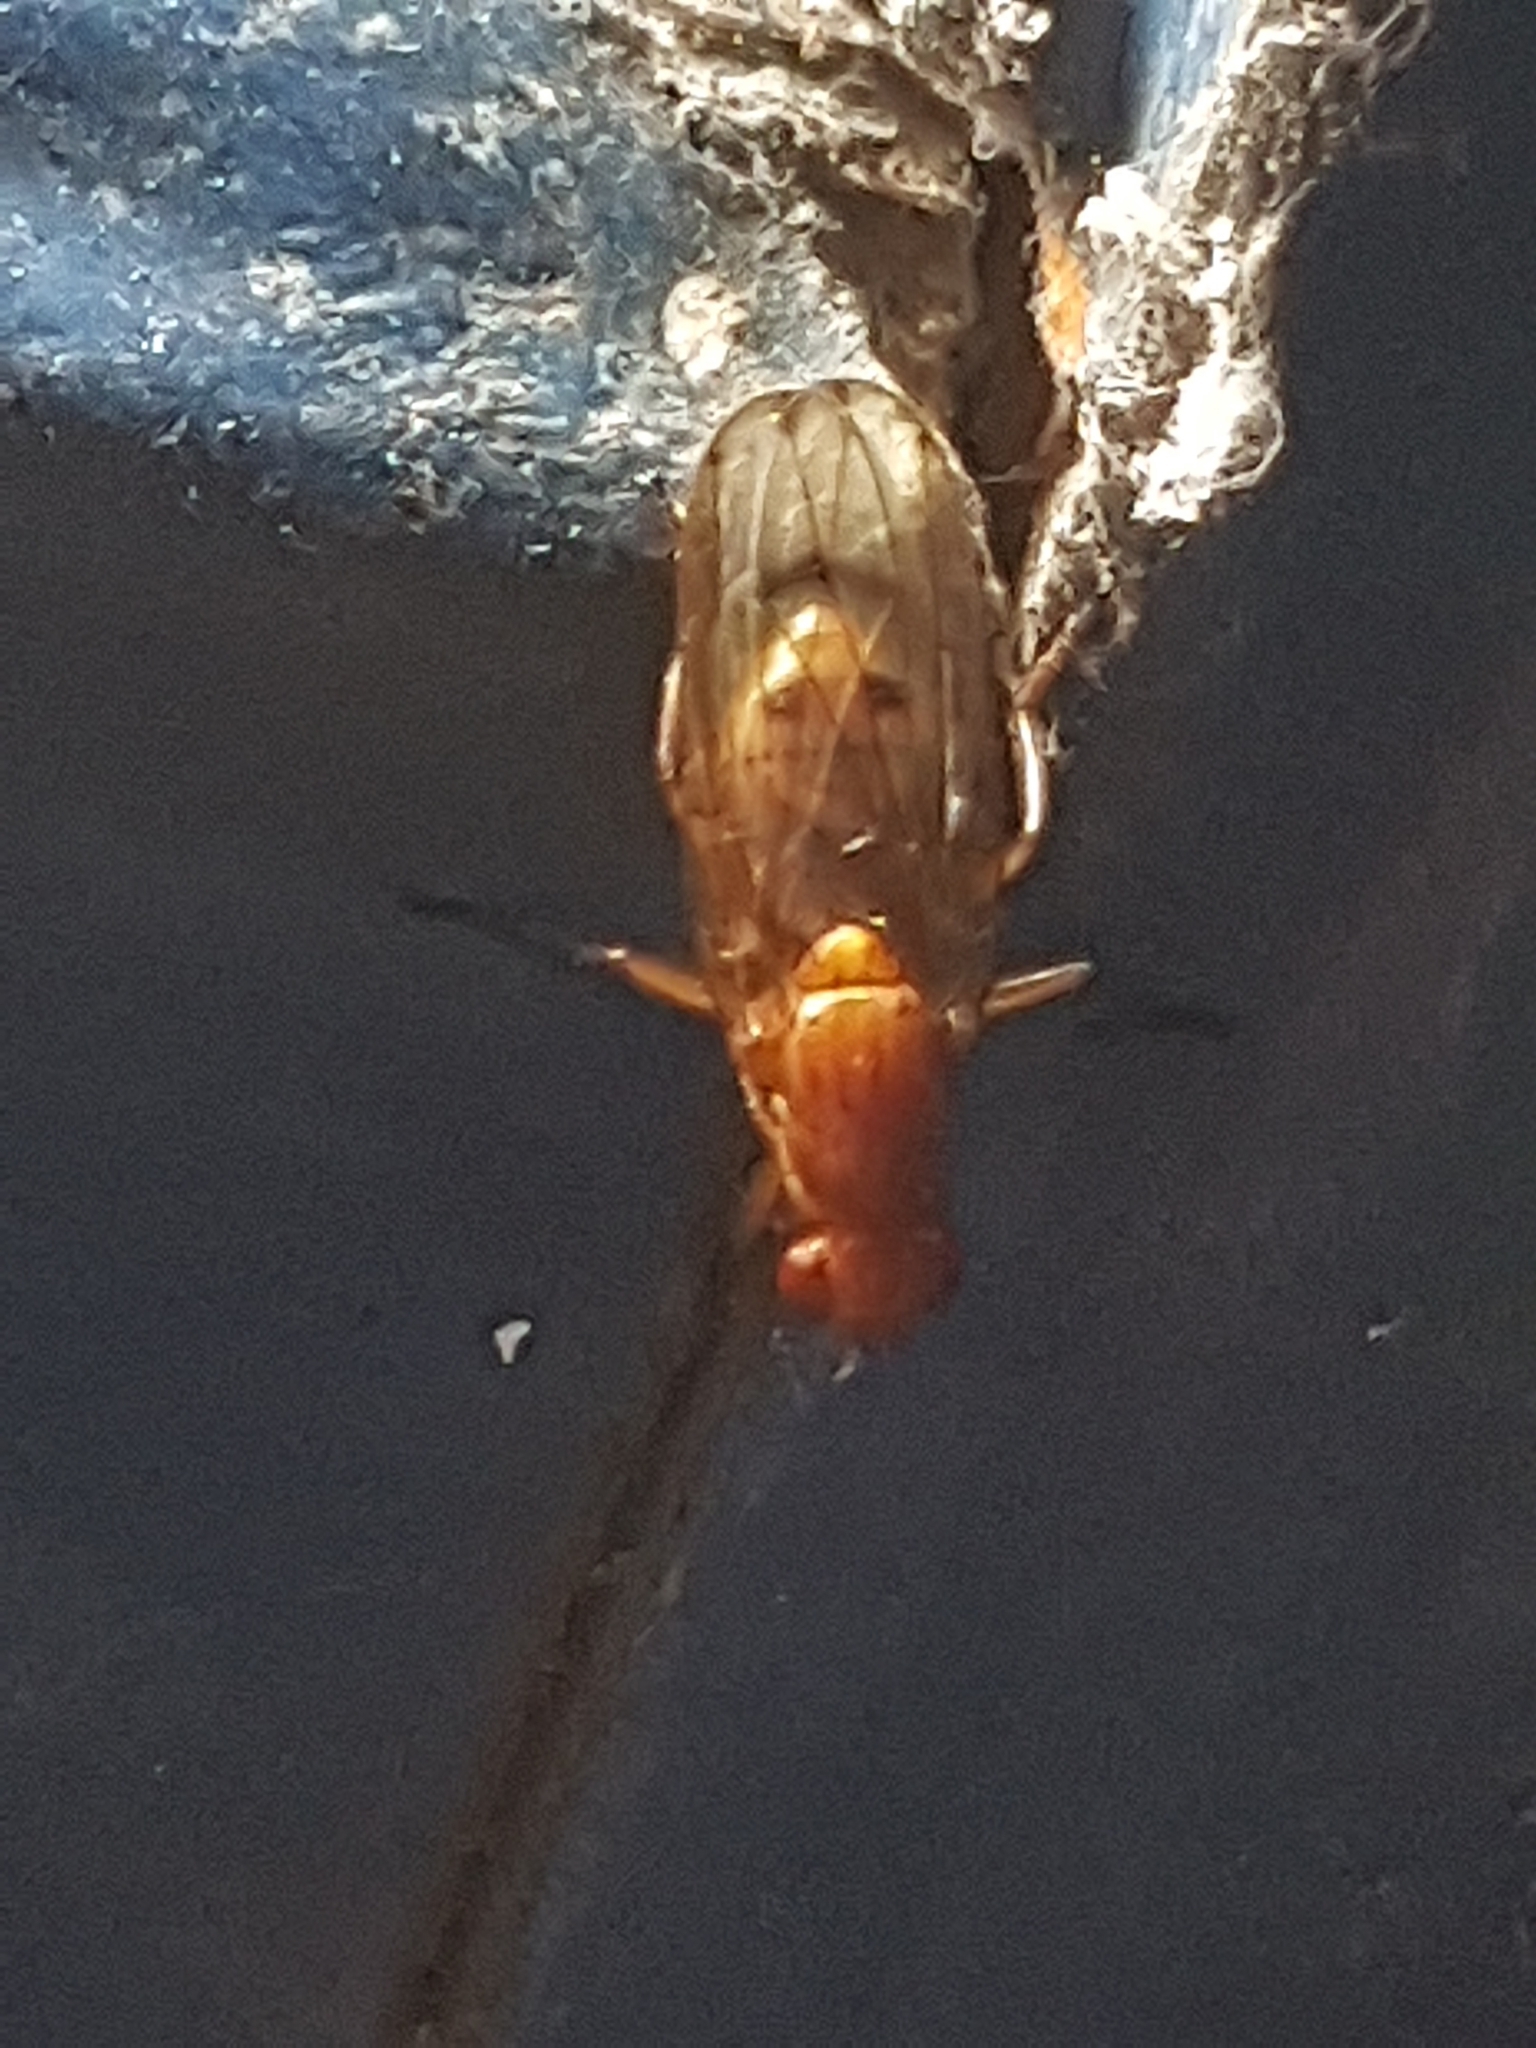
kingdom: Animalia
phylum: Arthropoda
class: Insecta
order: Diptera
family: Dryomyzidae
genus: Dryomyza
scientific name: Dryomyza anilis
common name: Marsh fly
